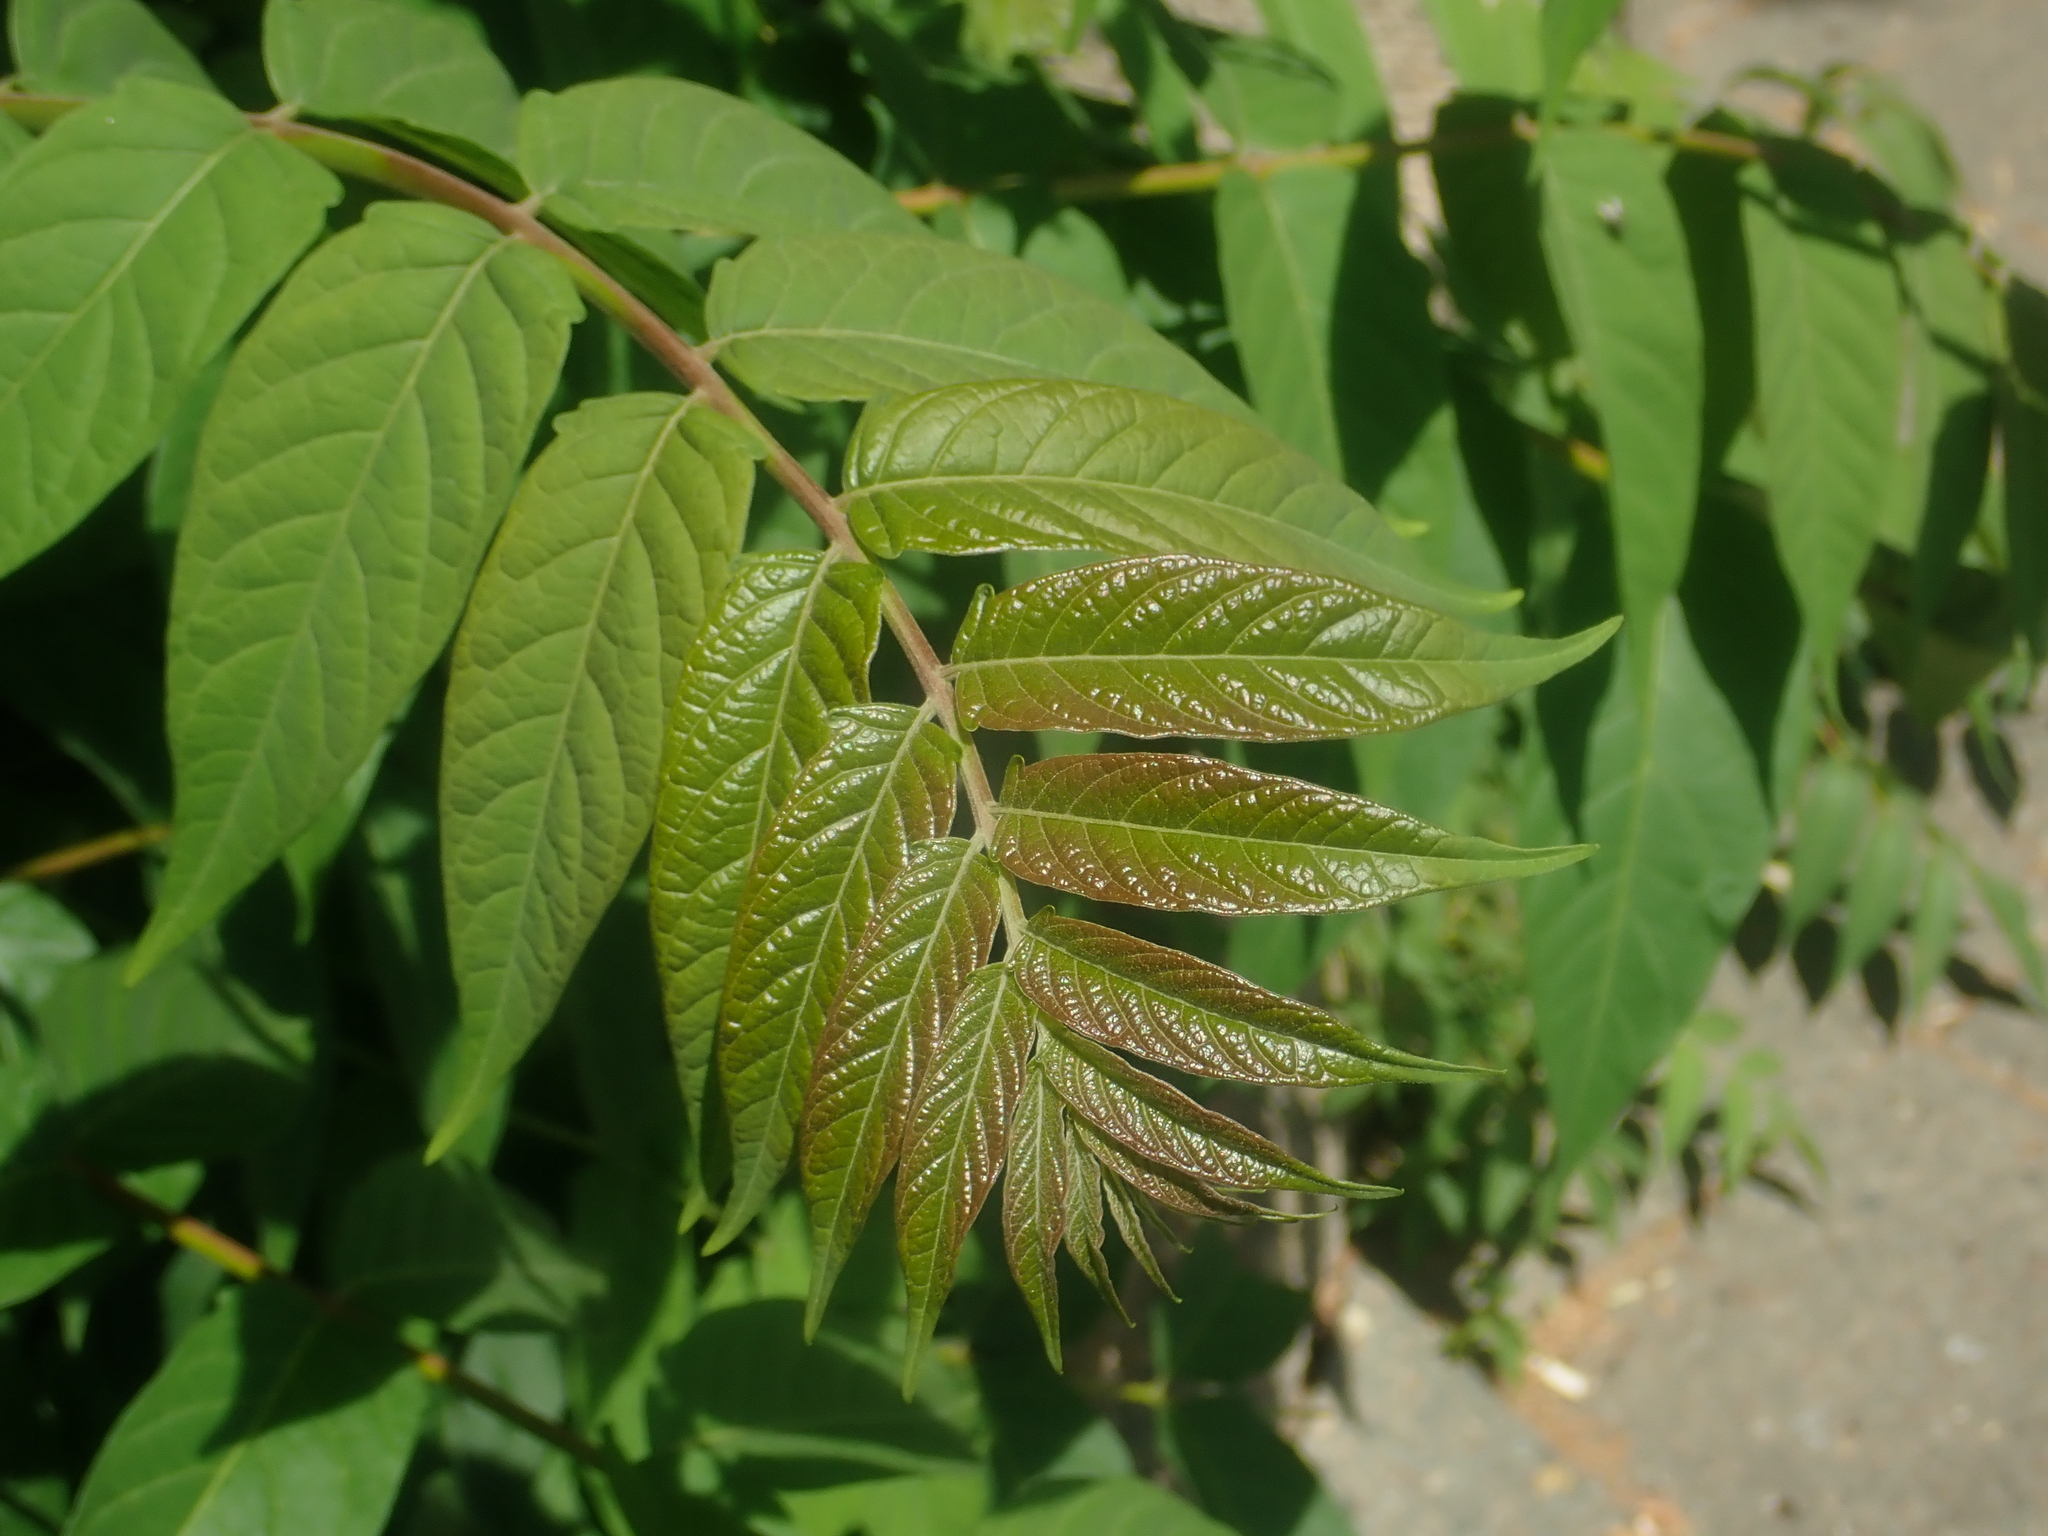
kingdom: Plantae
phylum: Tracheophyta
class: Magnoliopsida
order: Sapindales
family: Simaroubaceae
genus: Ailanthus
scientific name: Ailanthus altissima
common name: Tree-of-heaven
